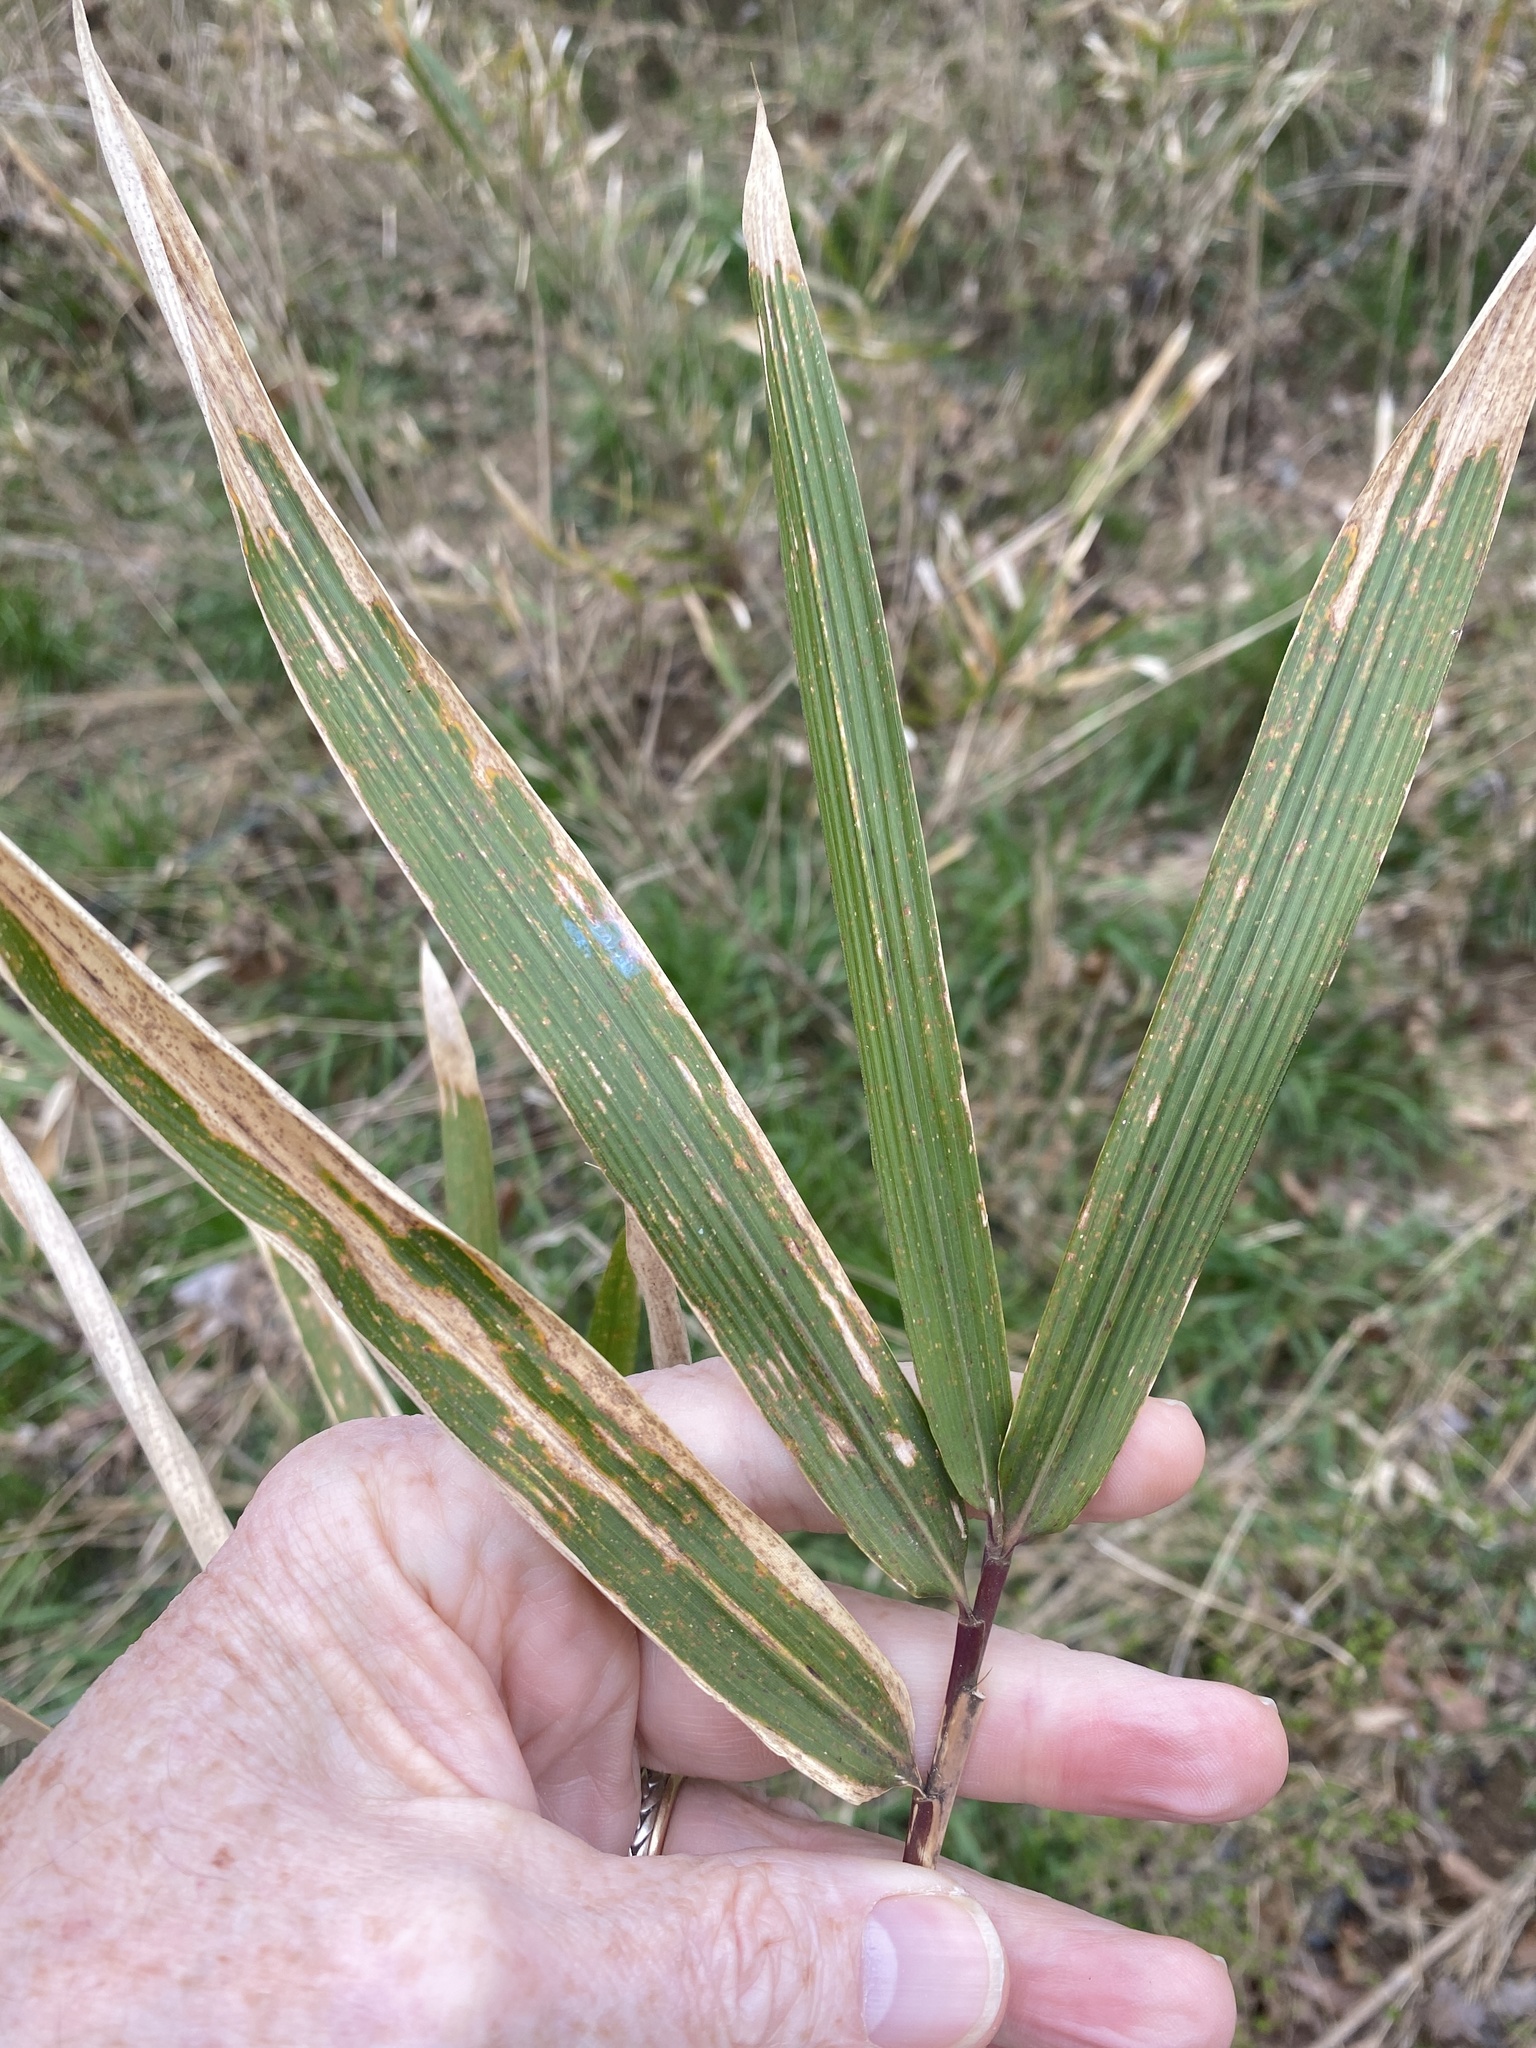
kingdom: Plantae
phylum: Tracheophyta
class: Liliopsida
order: Poales
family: Poaceae
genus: Arundinaria
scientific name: Arundinaria tecta
